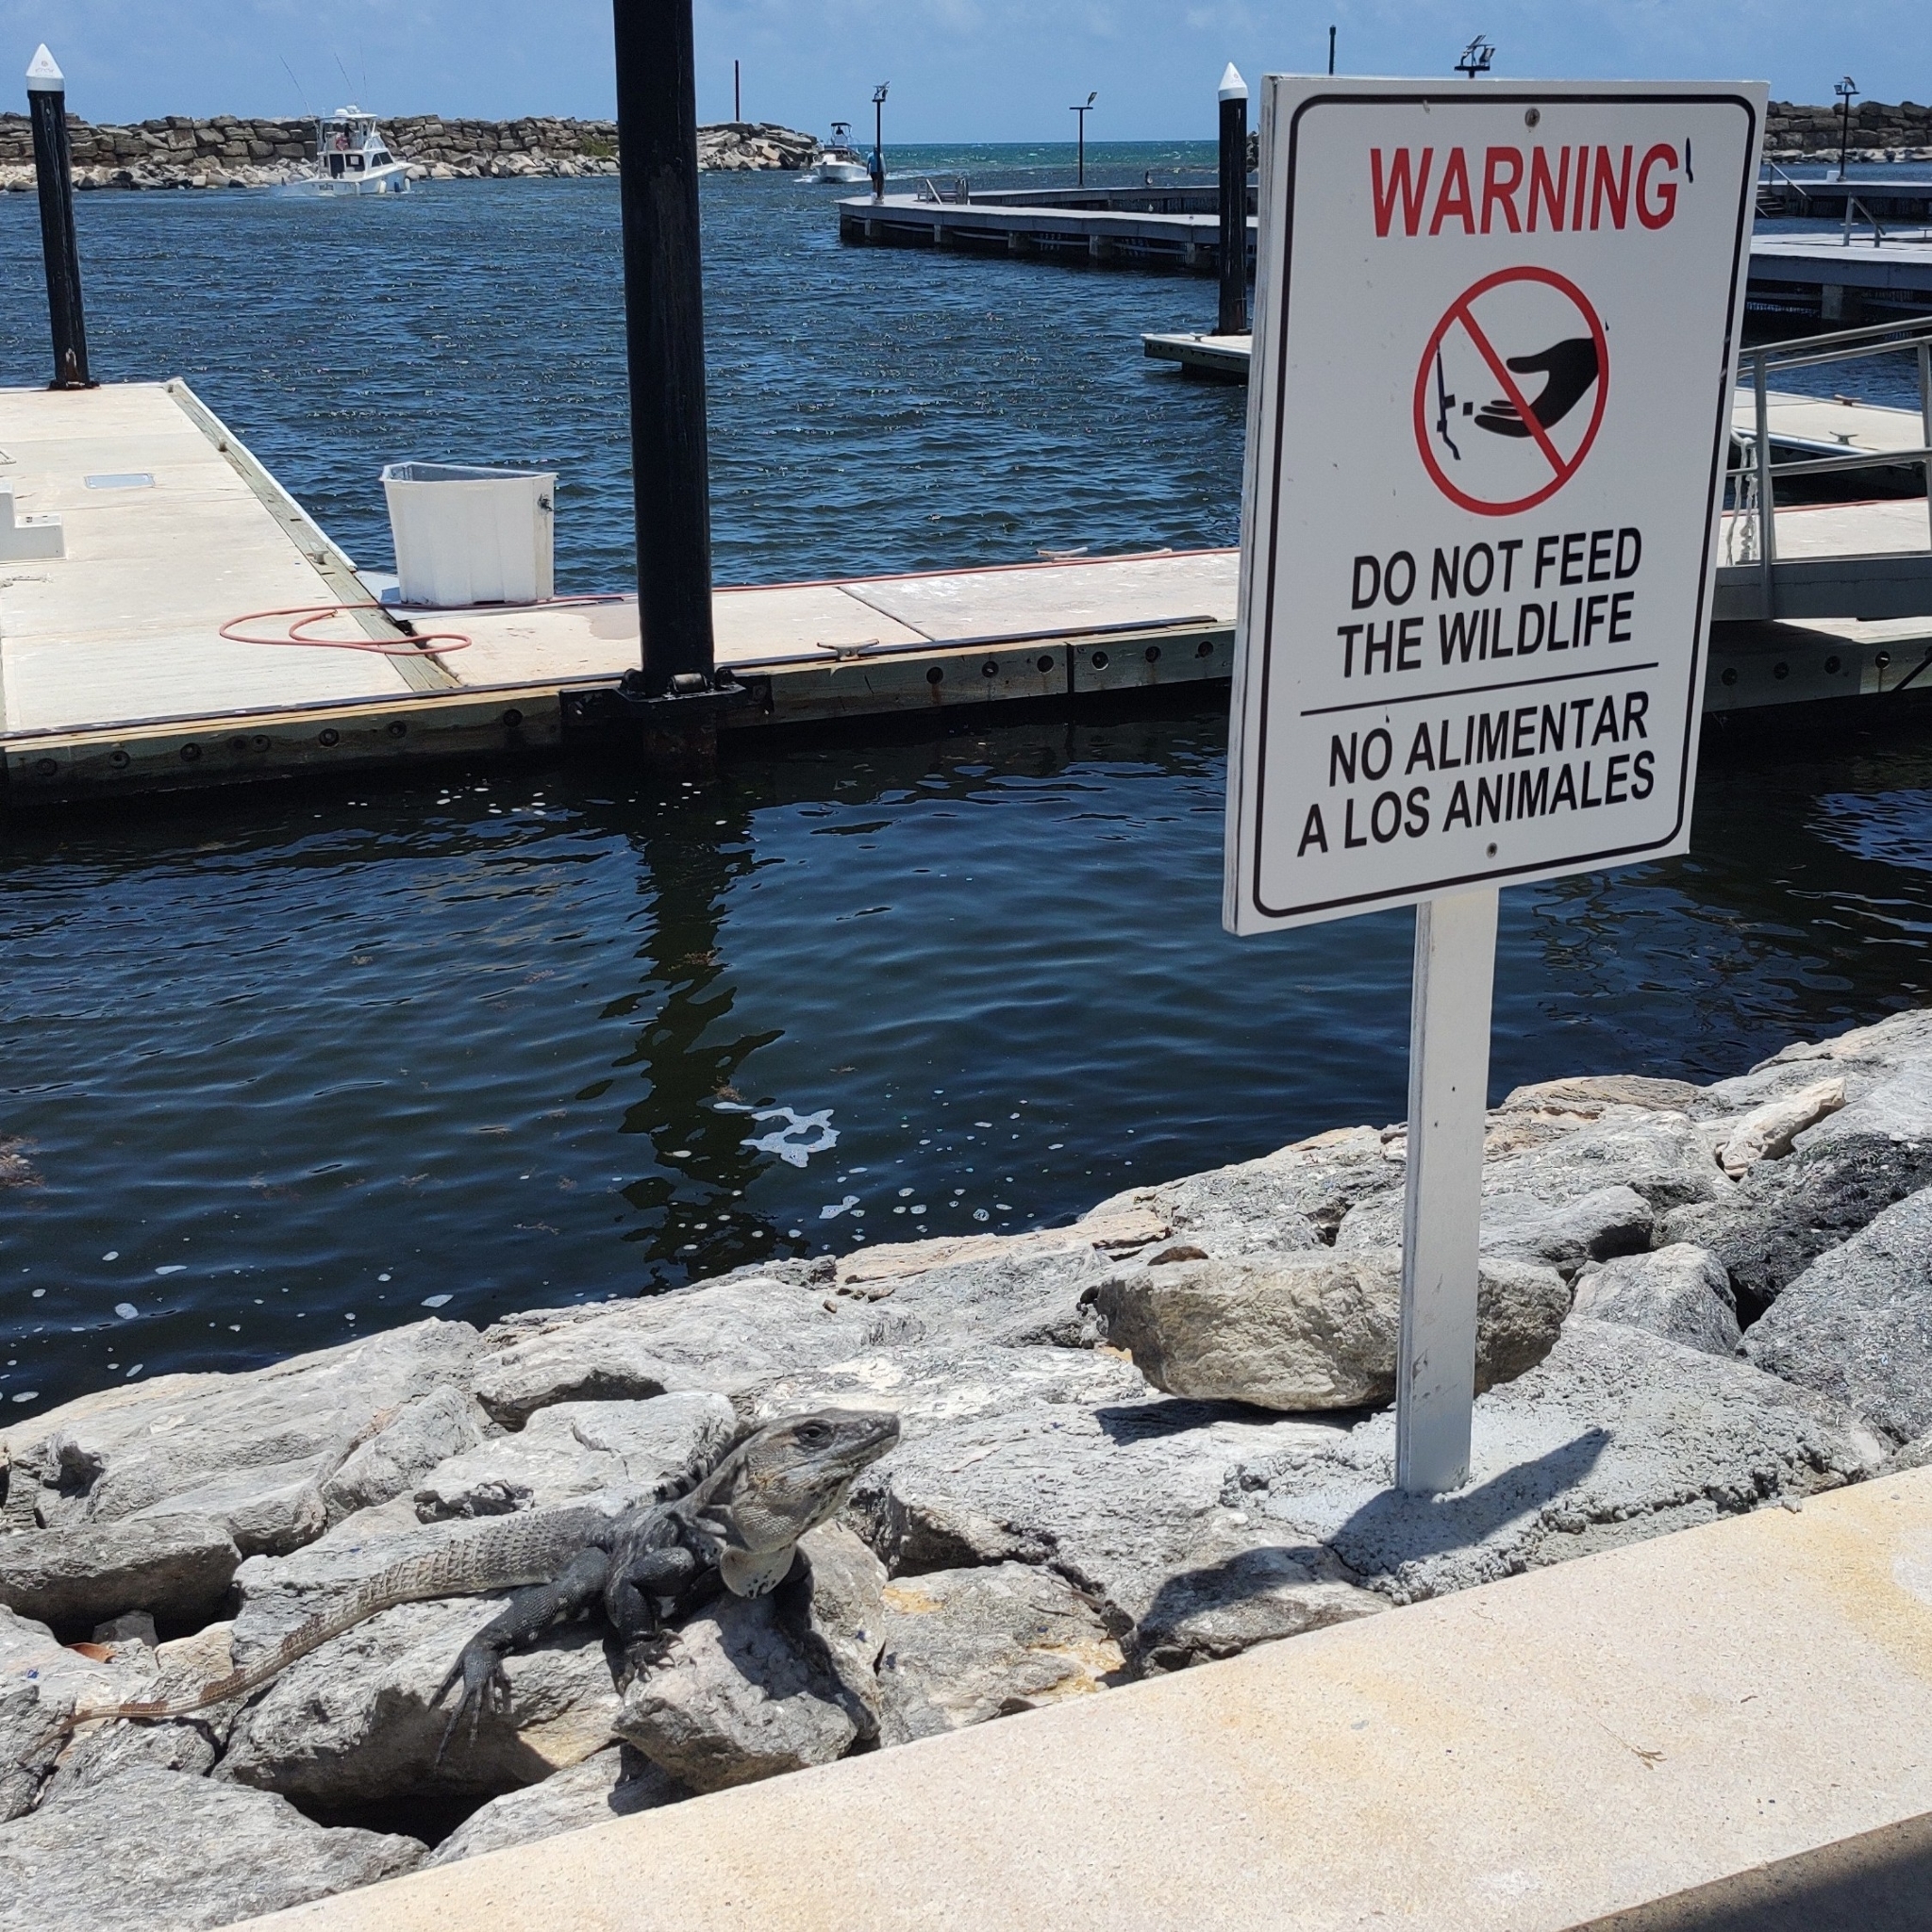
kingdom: Animalia
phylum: Chordata
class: Squamata
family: Iguanidae
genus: Ctenosaura
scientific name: Ctenosaura similis
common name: Black spiny-tailed iguana
